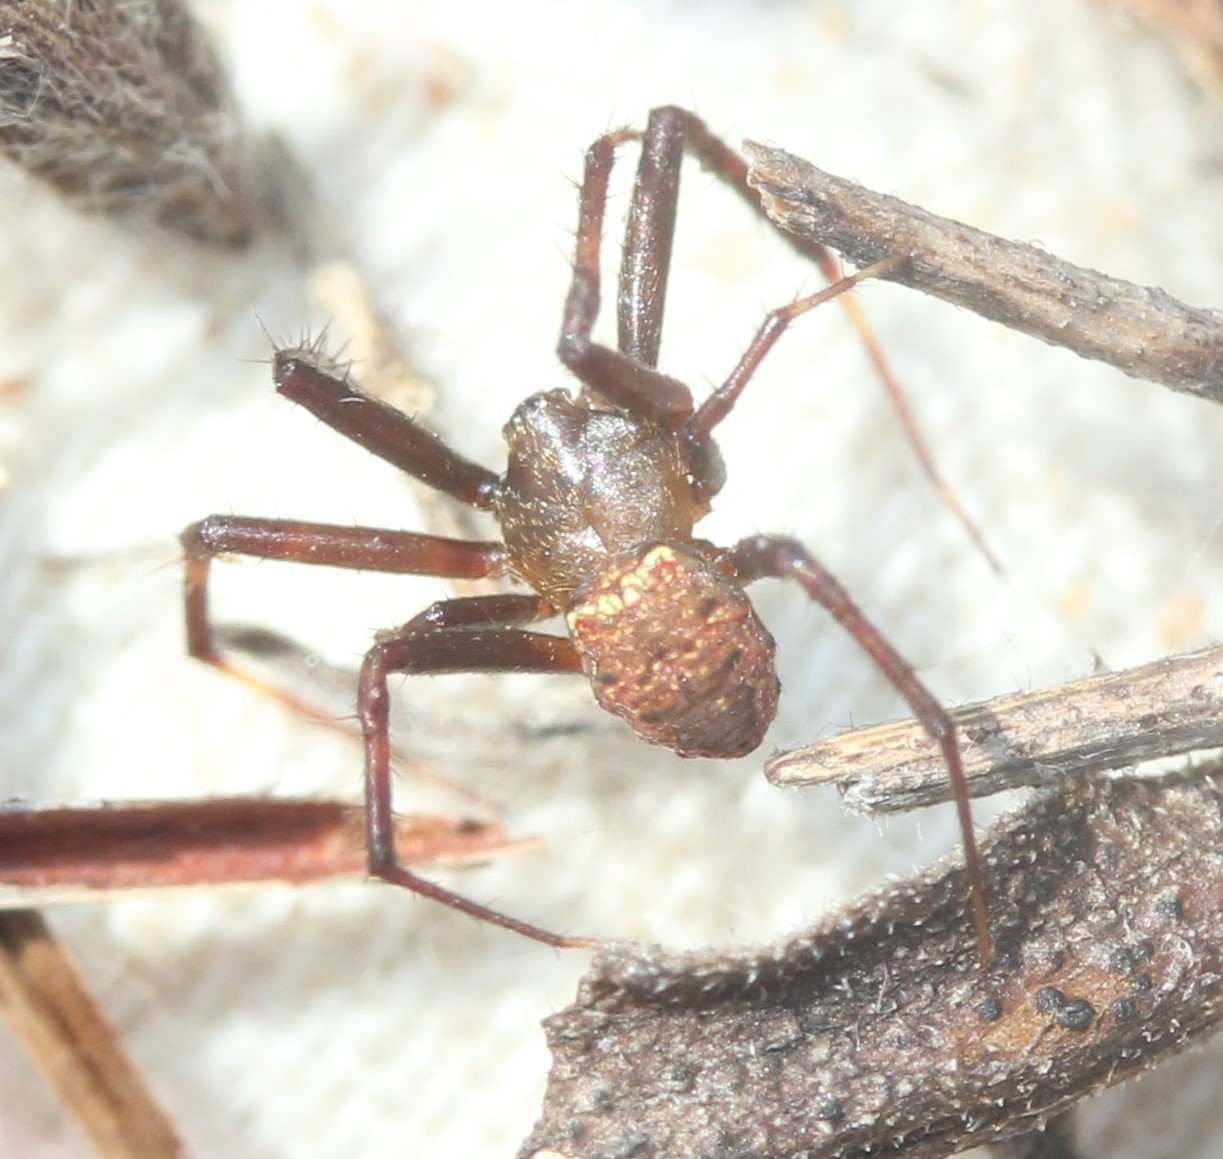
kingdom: Animalia
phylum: Arthropoda
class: Arachnida
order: Araneae
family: Araneidae
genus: Gea
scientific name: Gea heptagon
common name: Orb weavers
